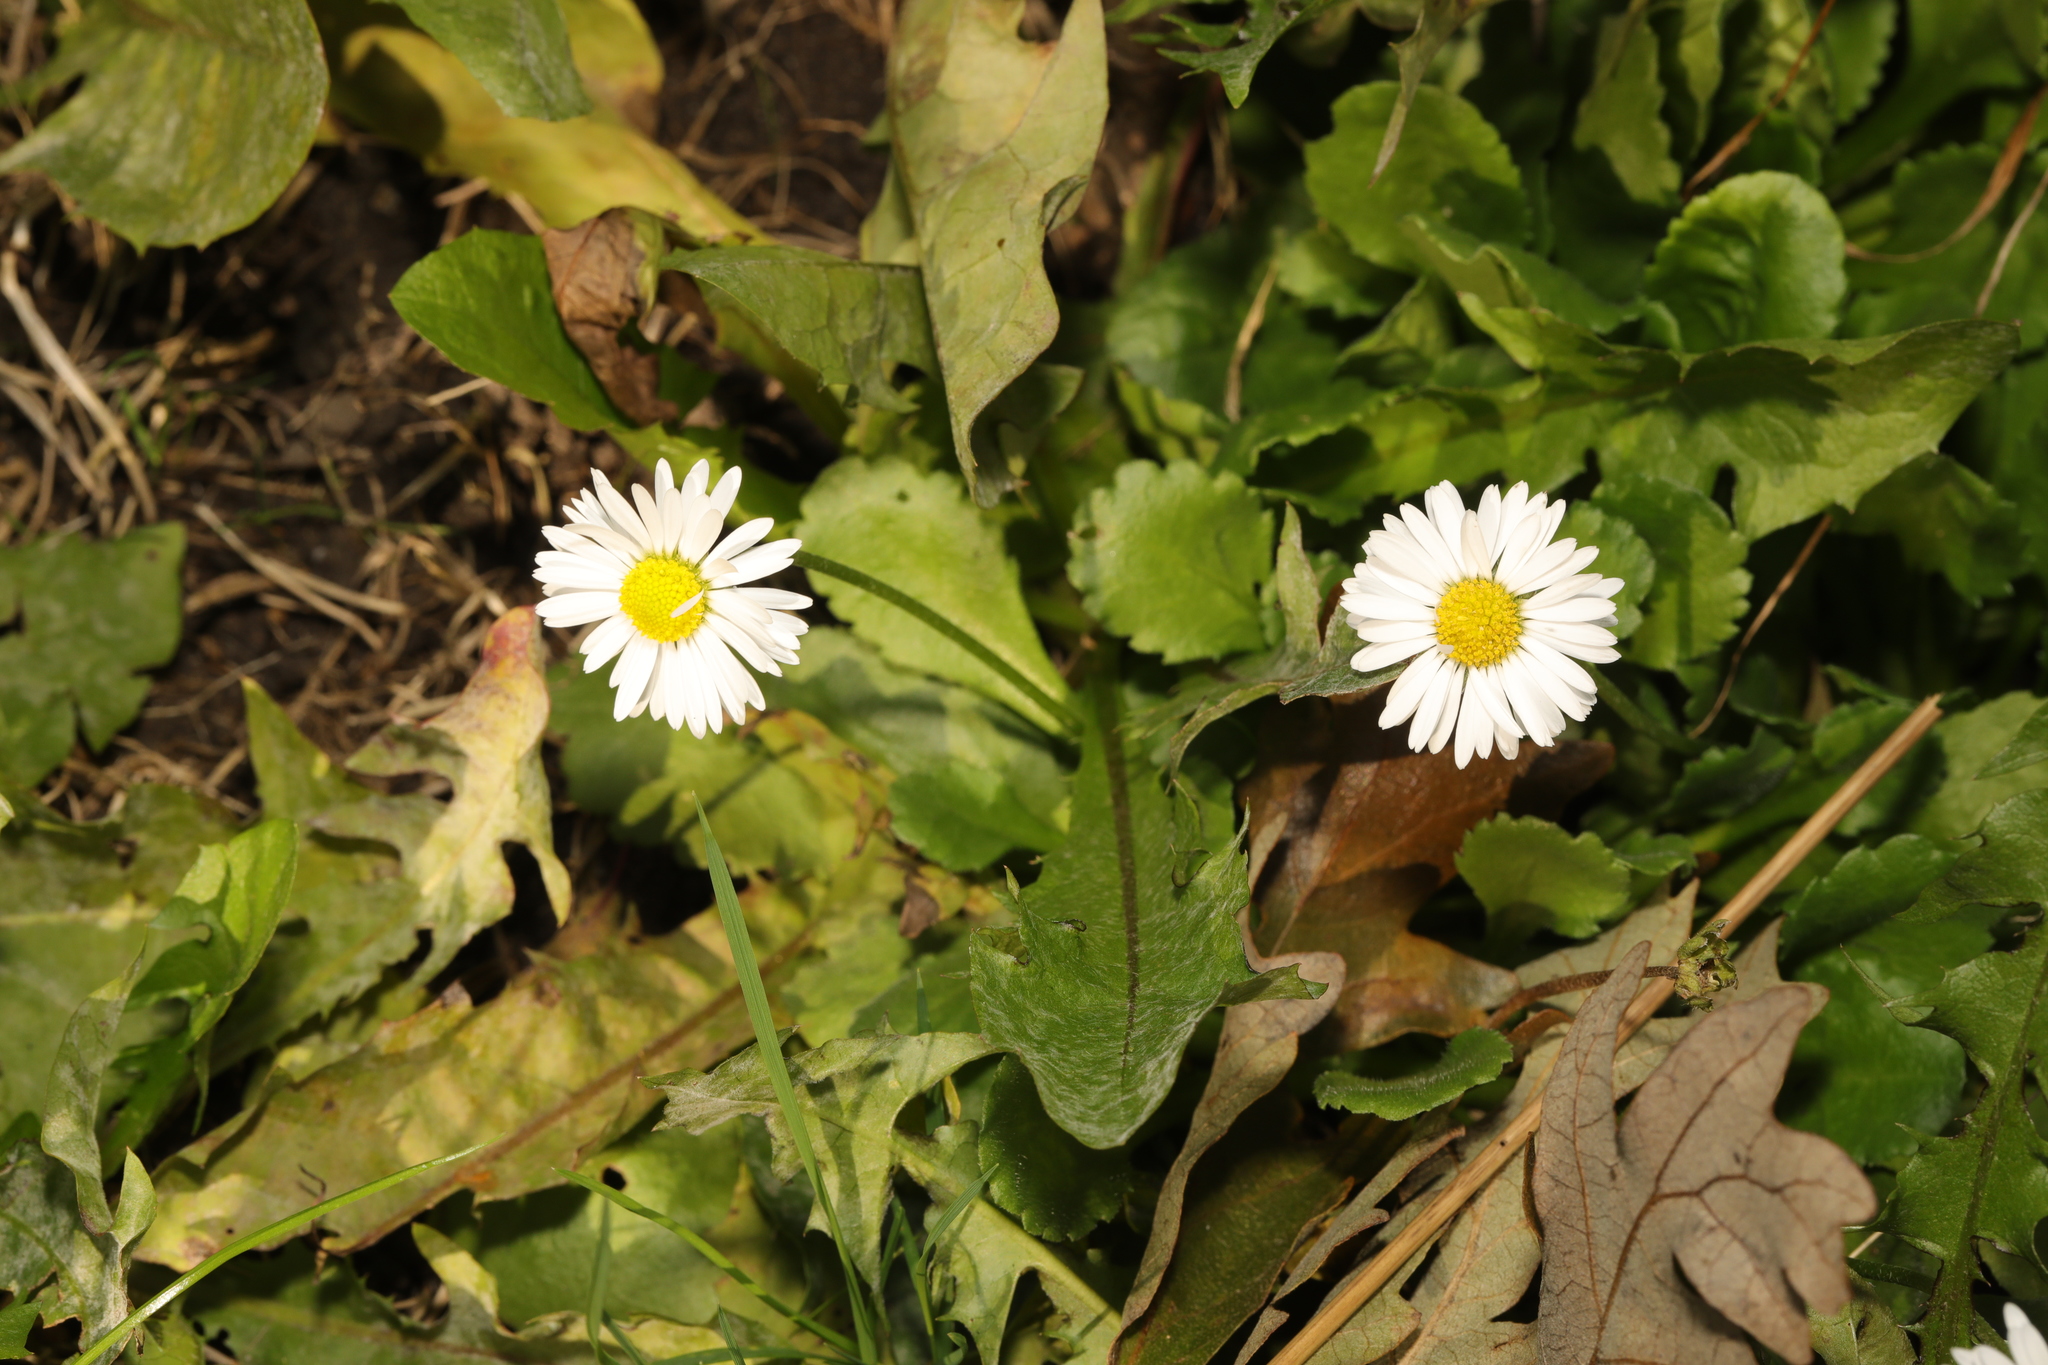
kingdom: Plantae
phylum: Tracheophyta
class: Magnoliopsida
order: Asterales
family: Asteraceae
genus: Bellis
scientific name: Bellis perennis
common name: Lawndaisy
